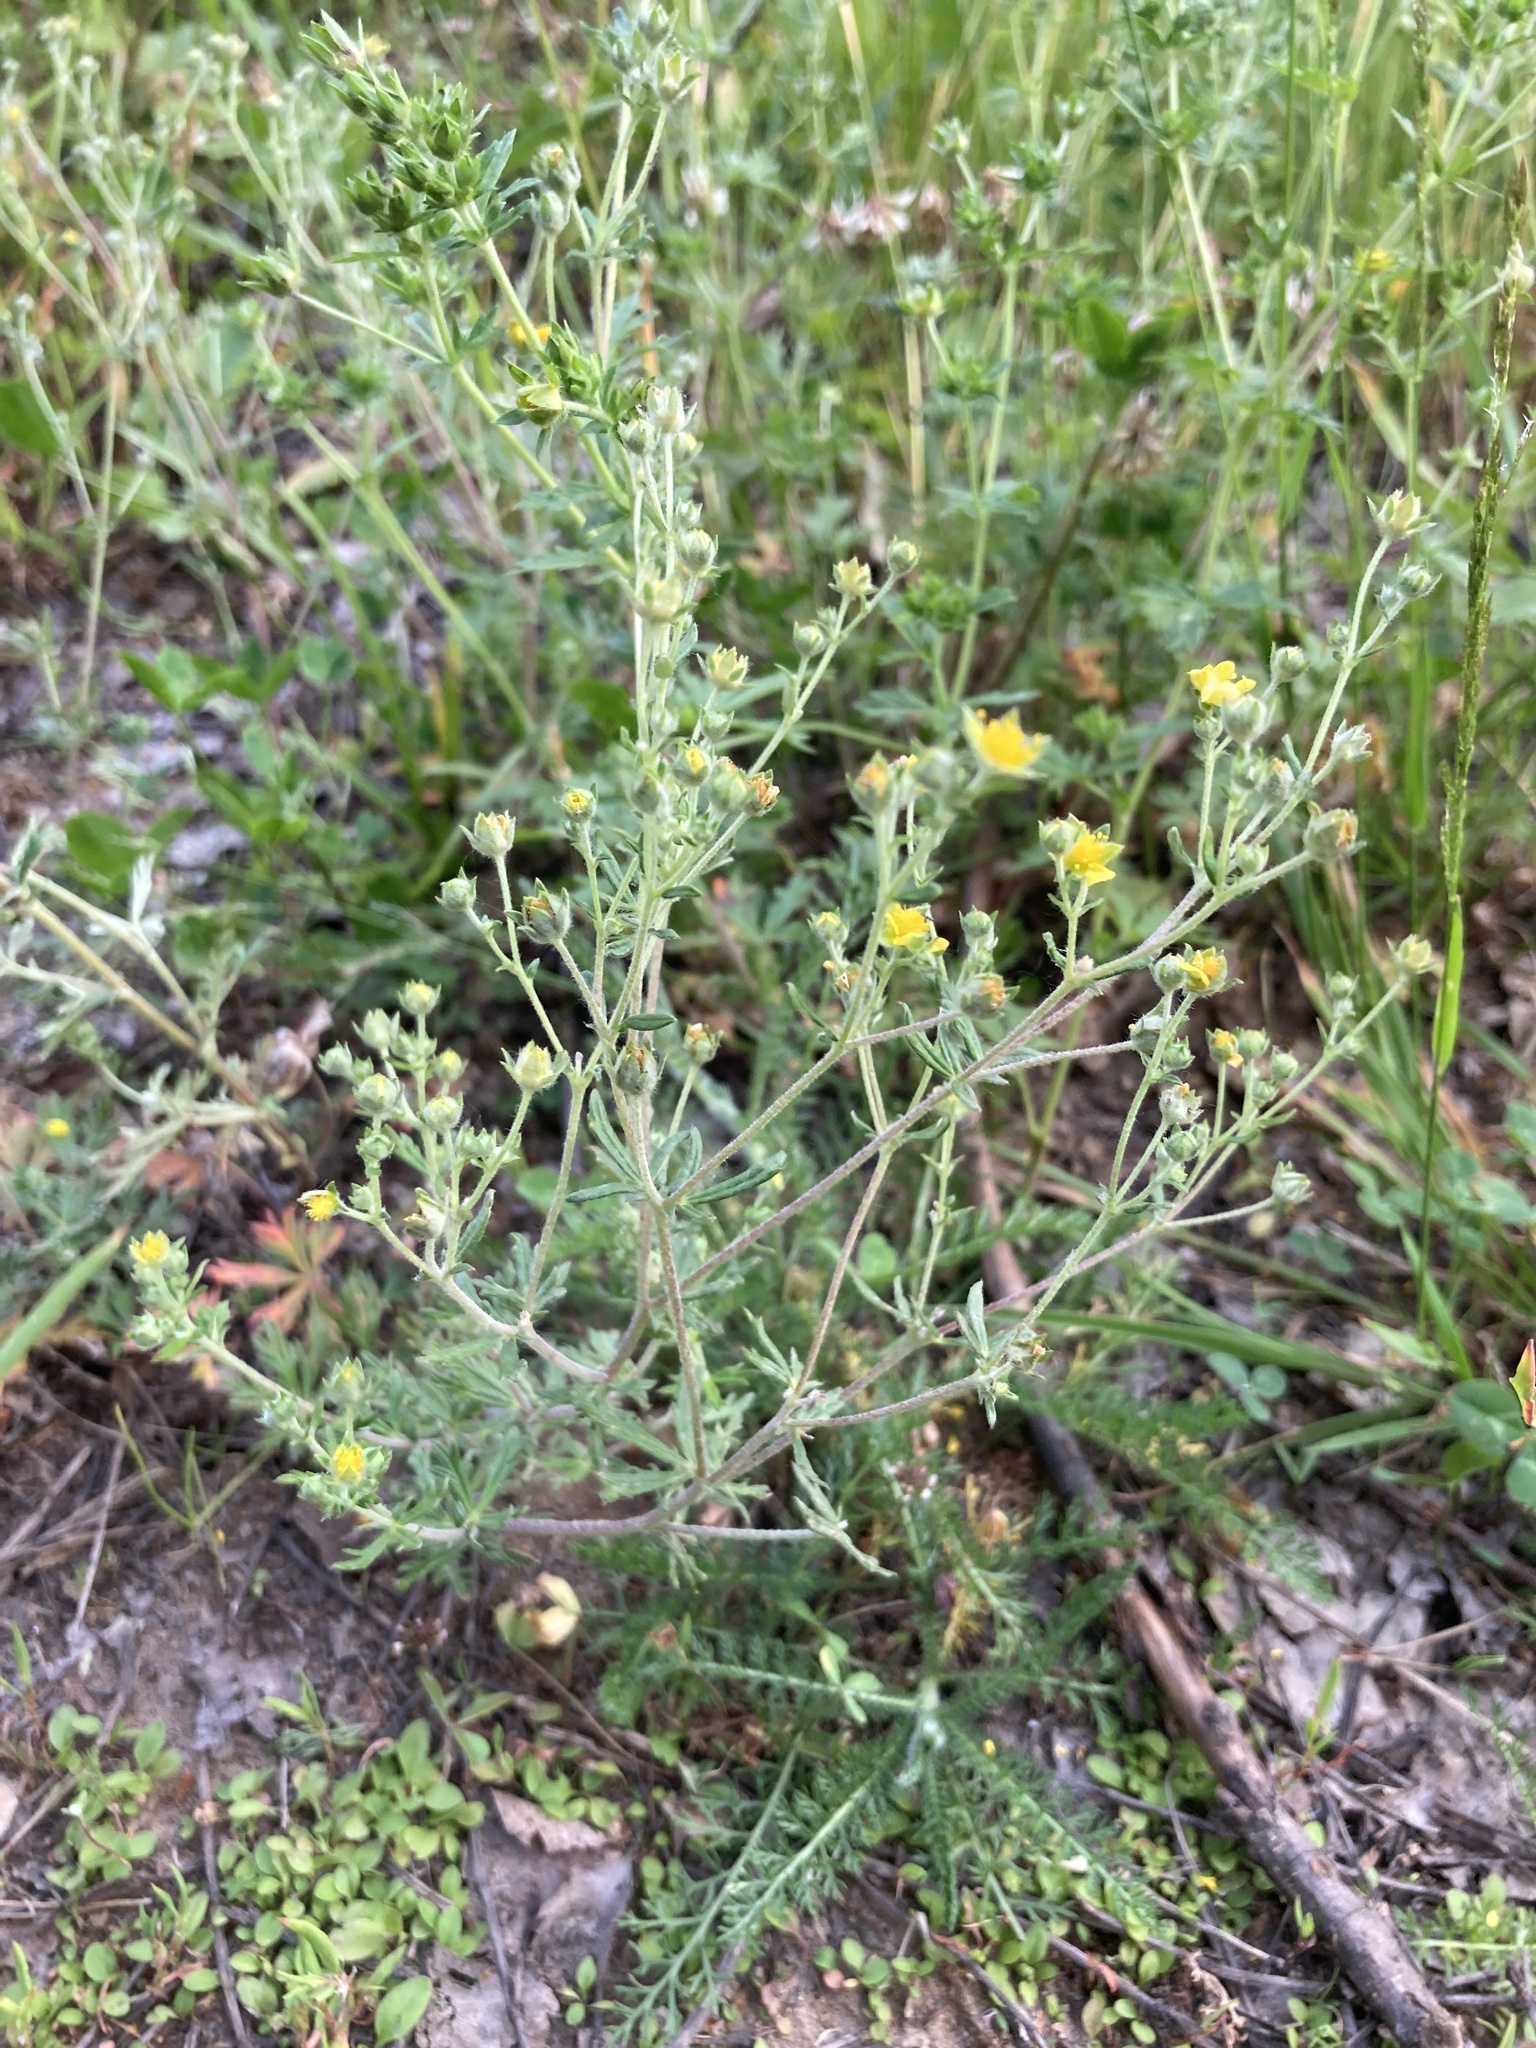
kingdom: Plantae
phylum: Tracheophyta
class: Magnoliopsida
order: Rosales
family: Rosaceae
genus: Potentilla
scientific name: Potentilla argentea
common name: Hoary cinquefoil
